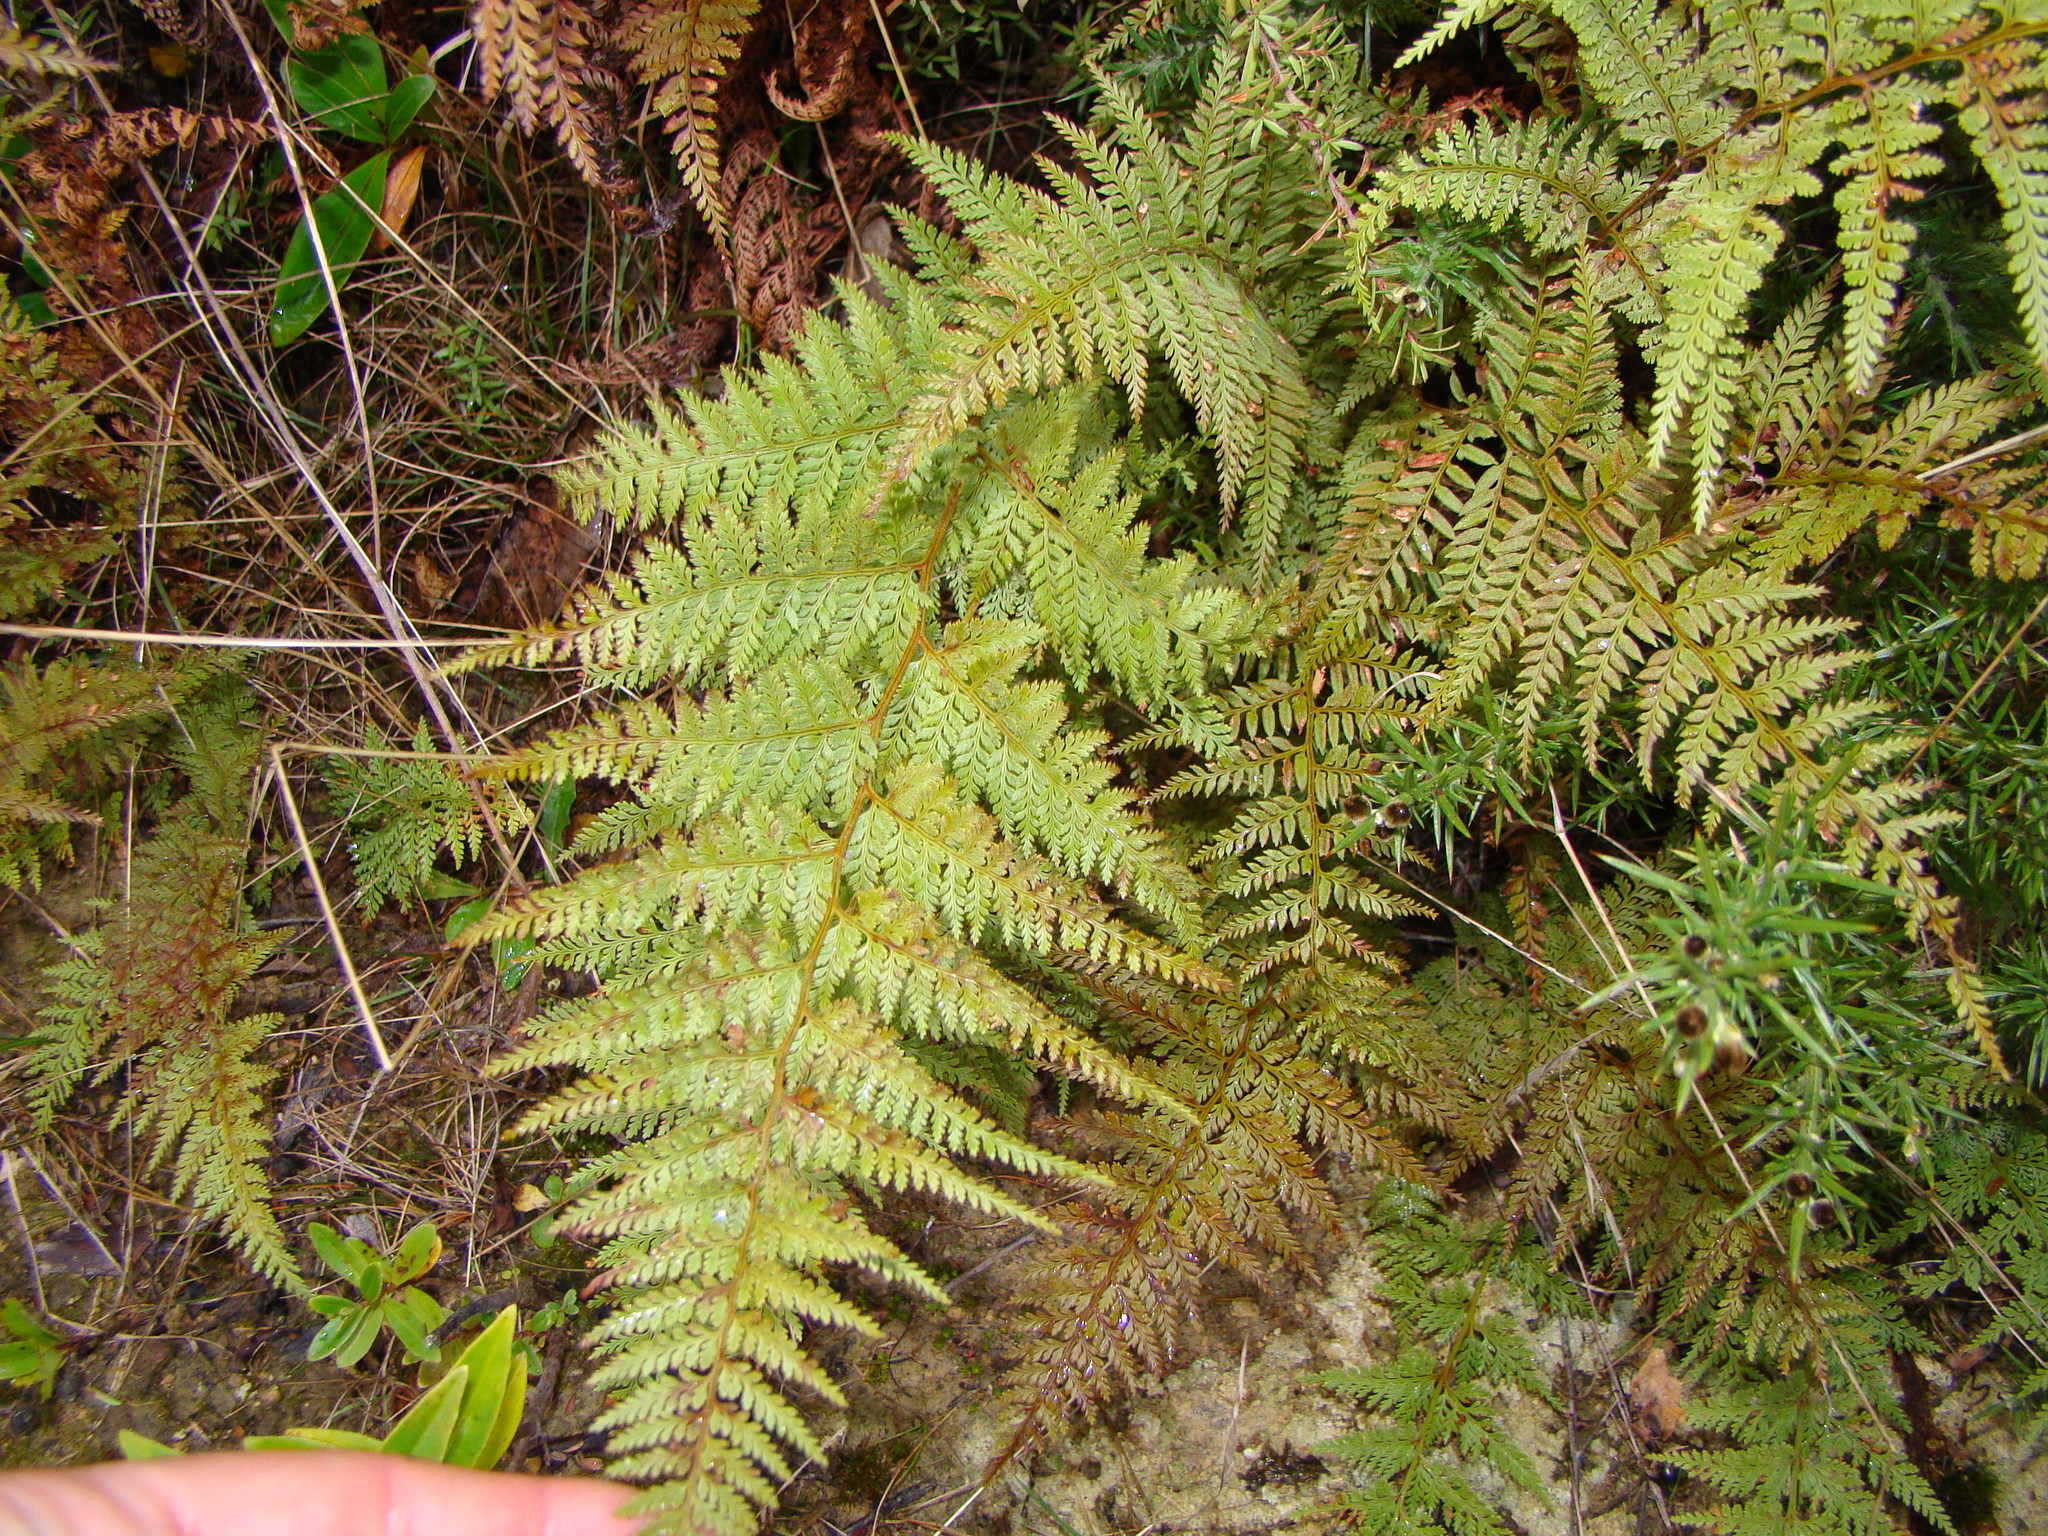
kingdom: Plantae
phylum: Tracheophyta
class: Polypodiopsida
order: Polypodiales
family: Dennstaedtiaceae
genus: Paesia
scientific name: Paesia scaberula
